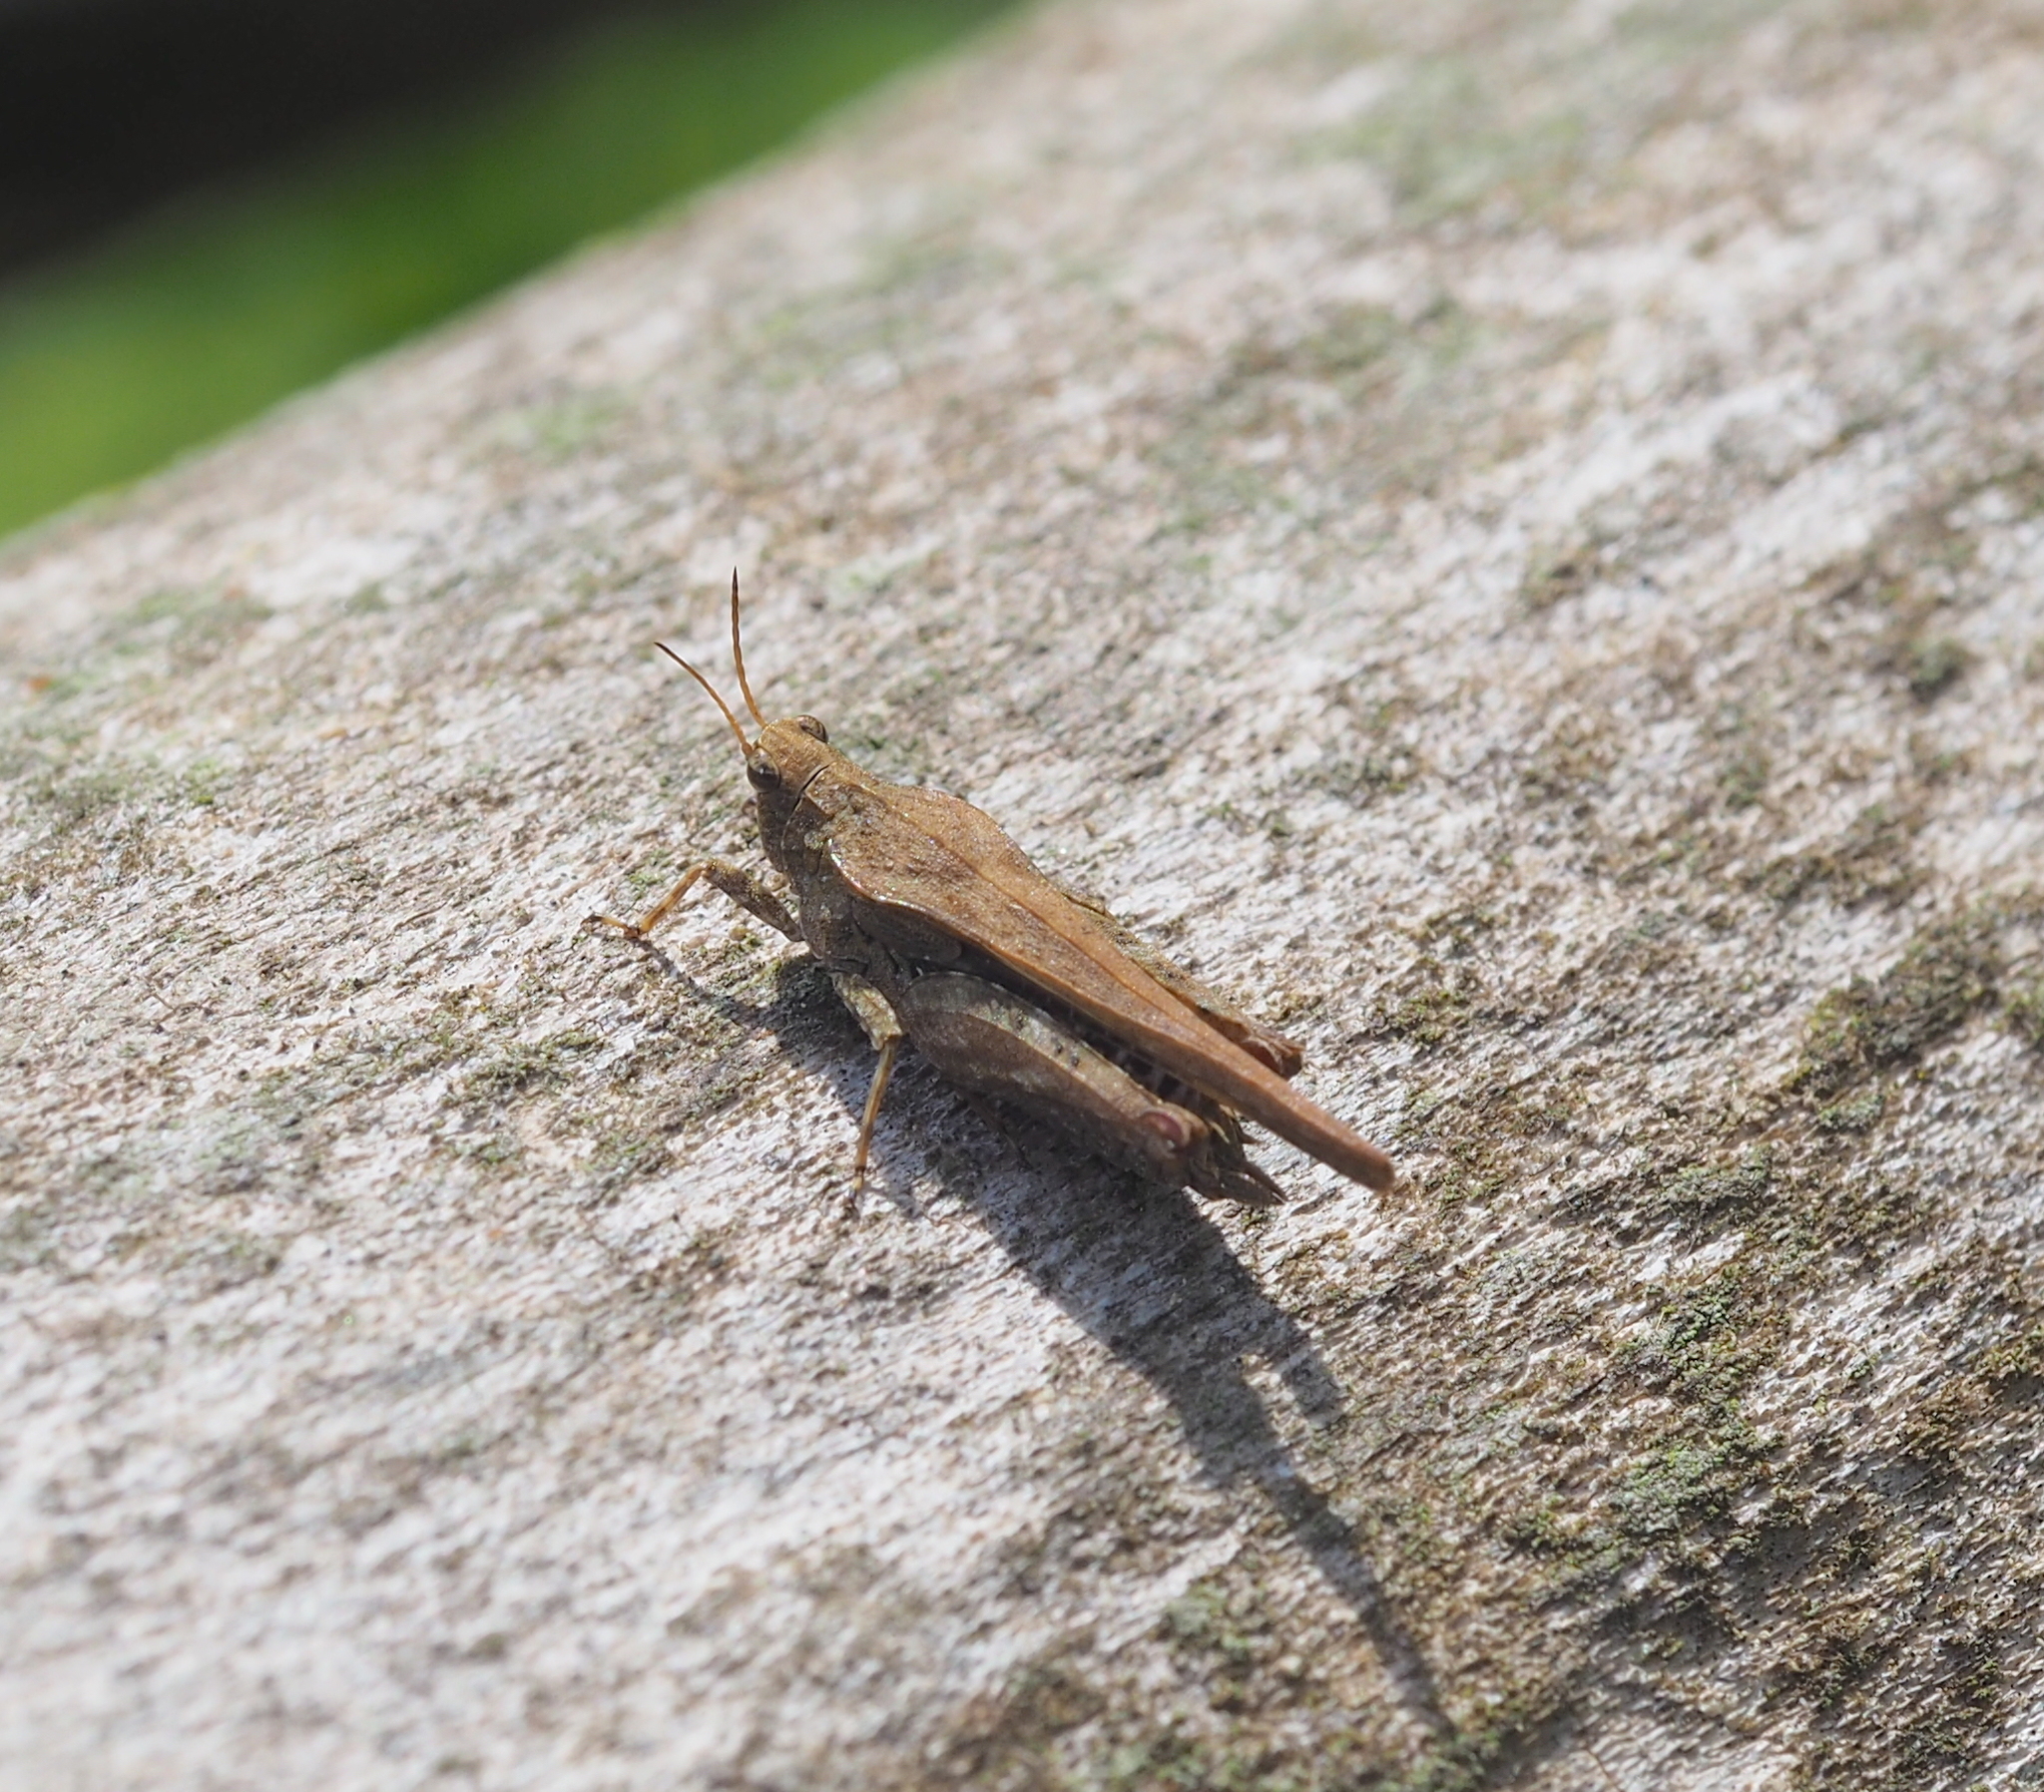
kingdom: Animalia
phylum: Arthropoda
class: Insecta
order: Orthoptera
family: Tetrigidae
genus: Tetrix
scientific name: Tetrix subulata
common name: Slender ground-hopper
